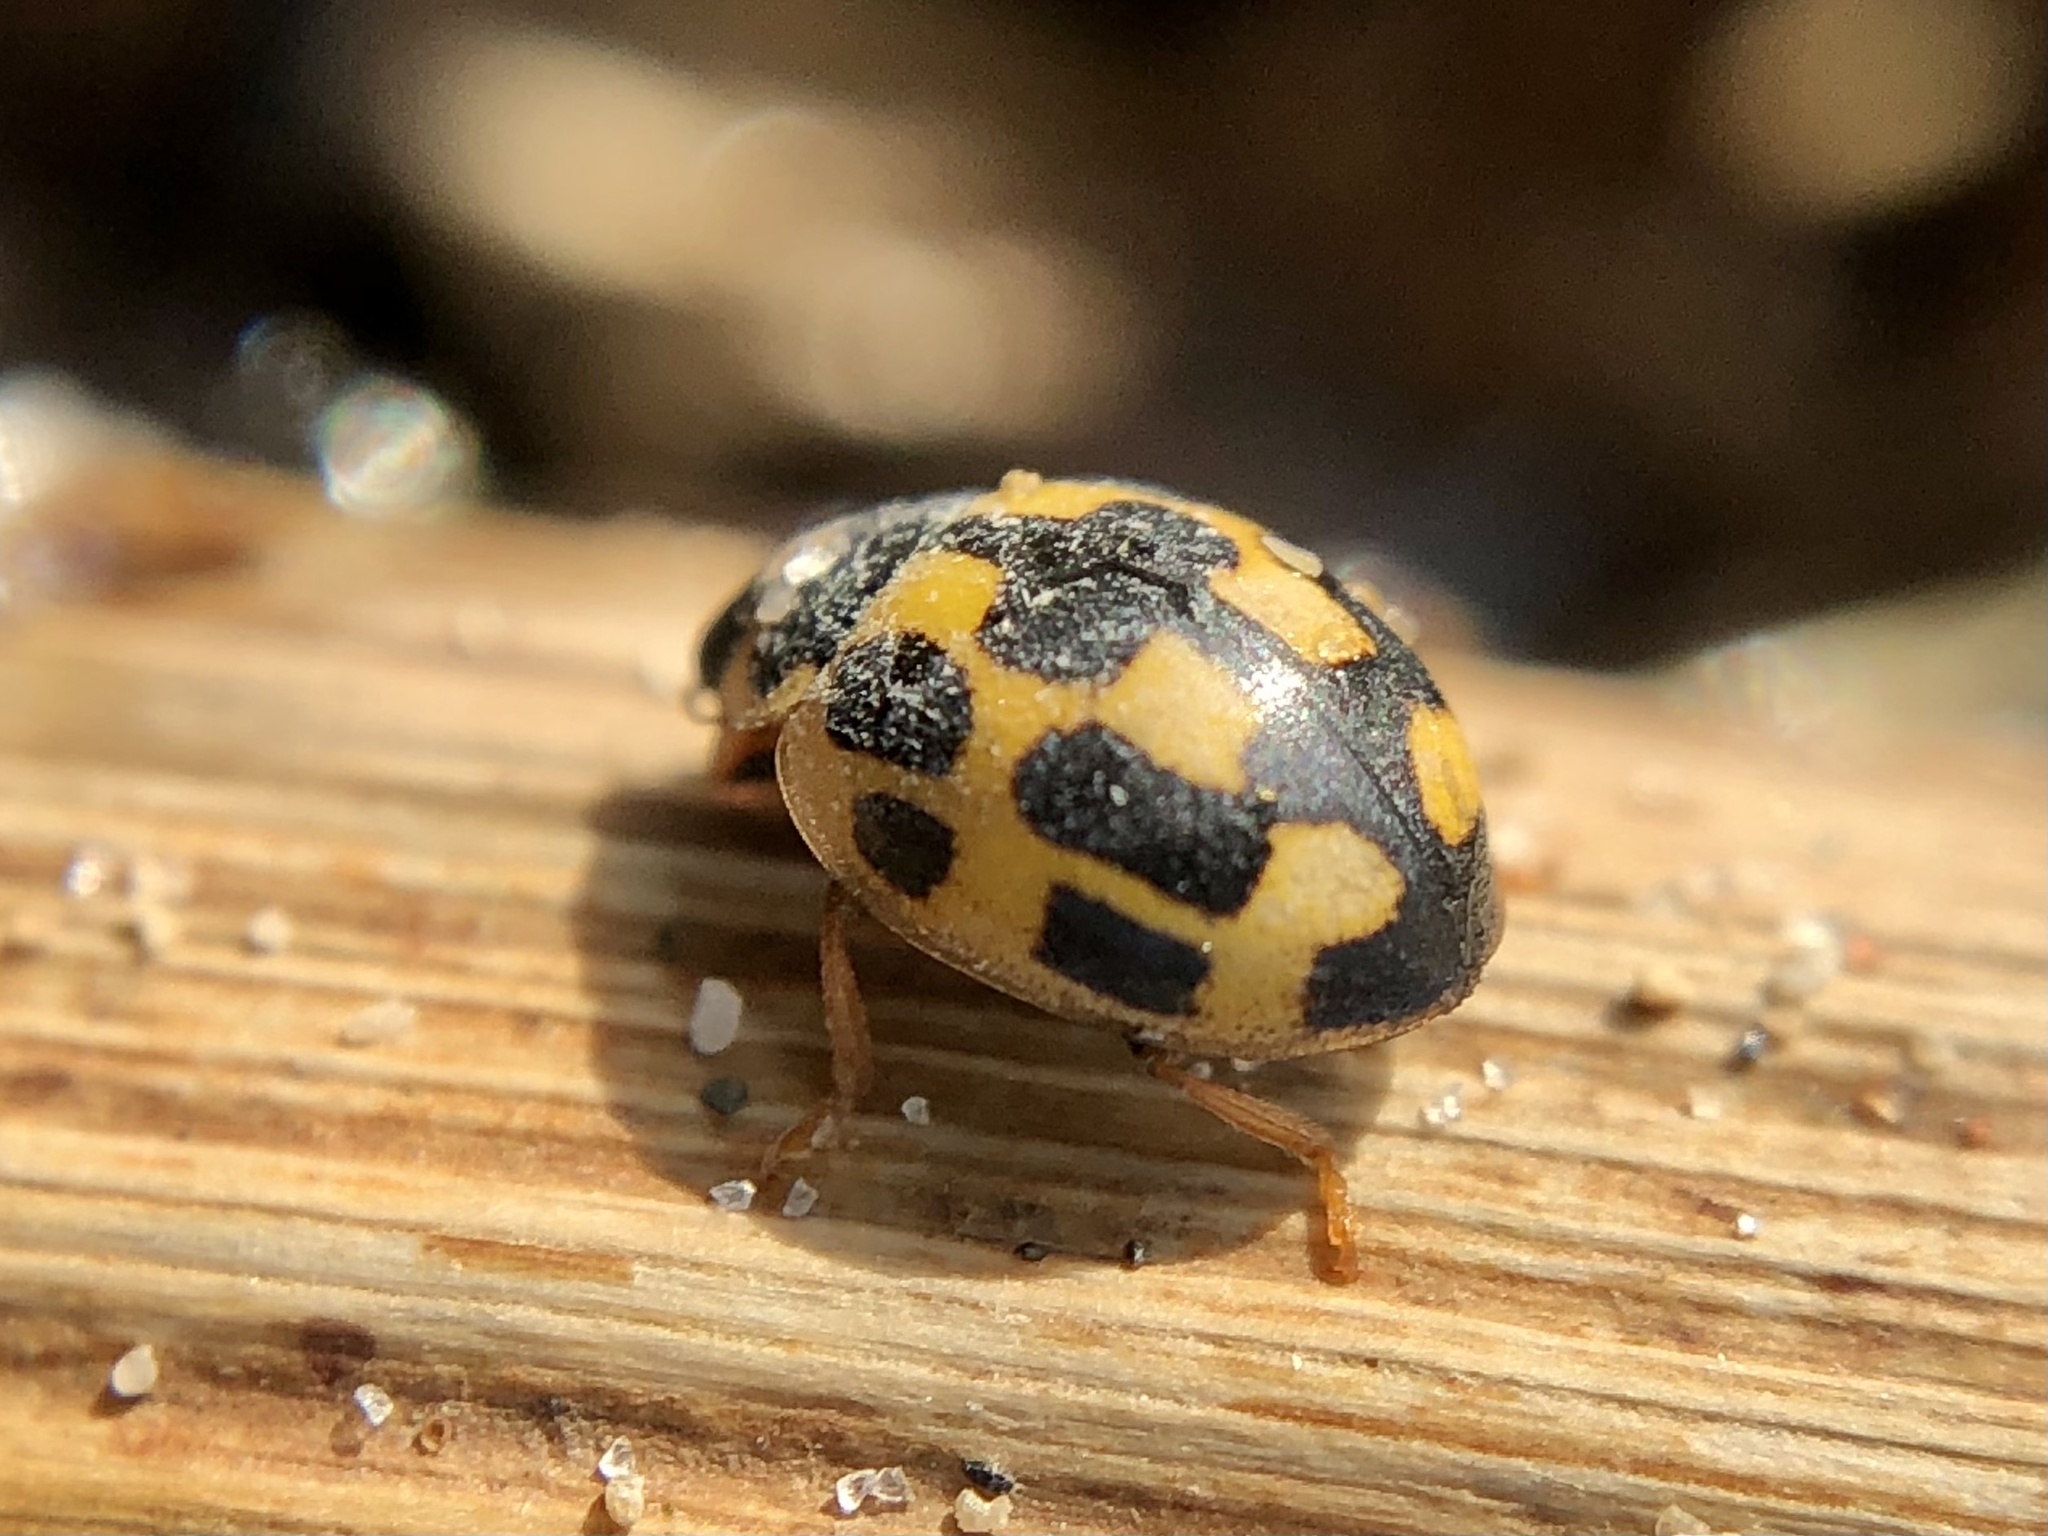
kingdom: Animalia
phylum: Arthropoda
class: Insecta
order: Coleoptera
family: Coccinellidae
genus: Propylaea
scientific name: Propylaea quatuordecimpunctata
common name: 14-spotted ladybird beetle
